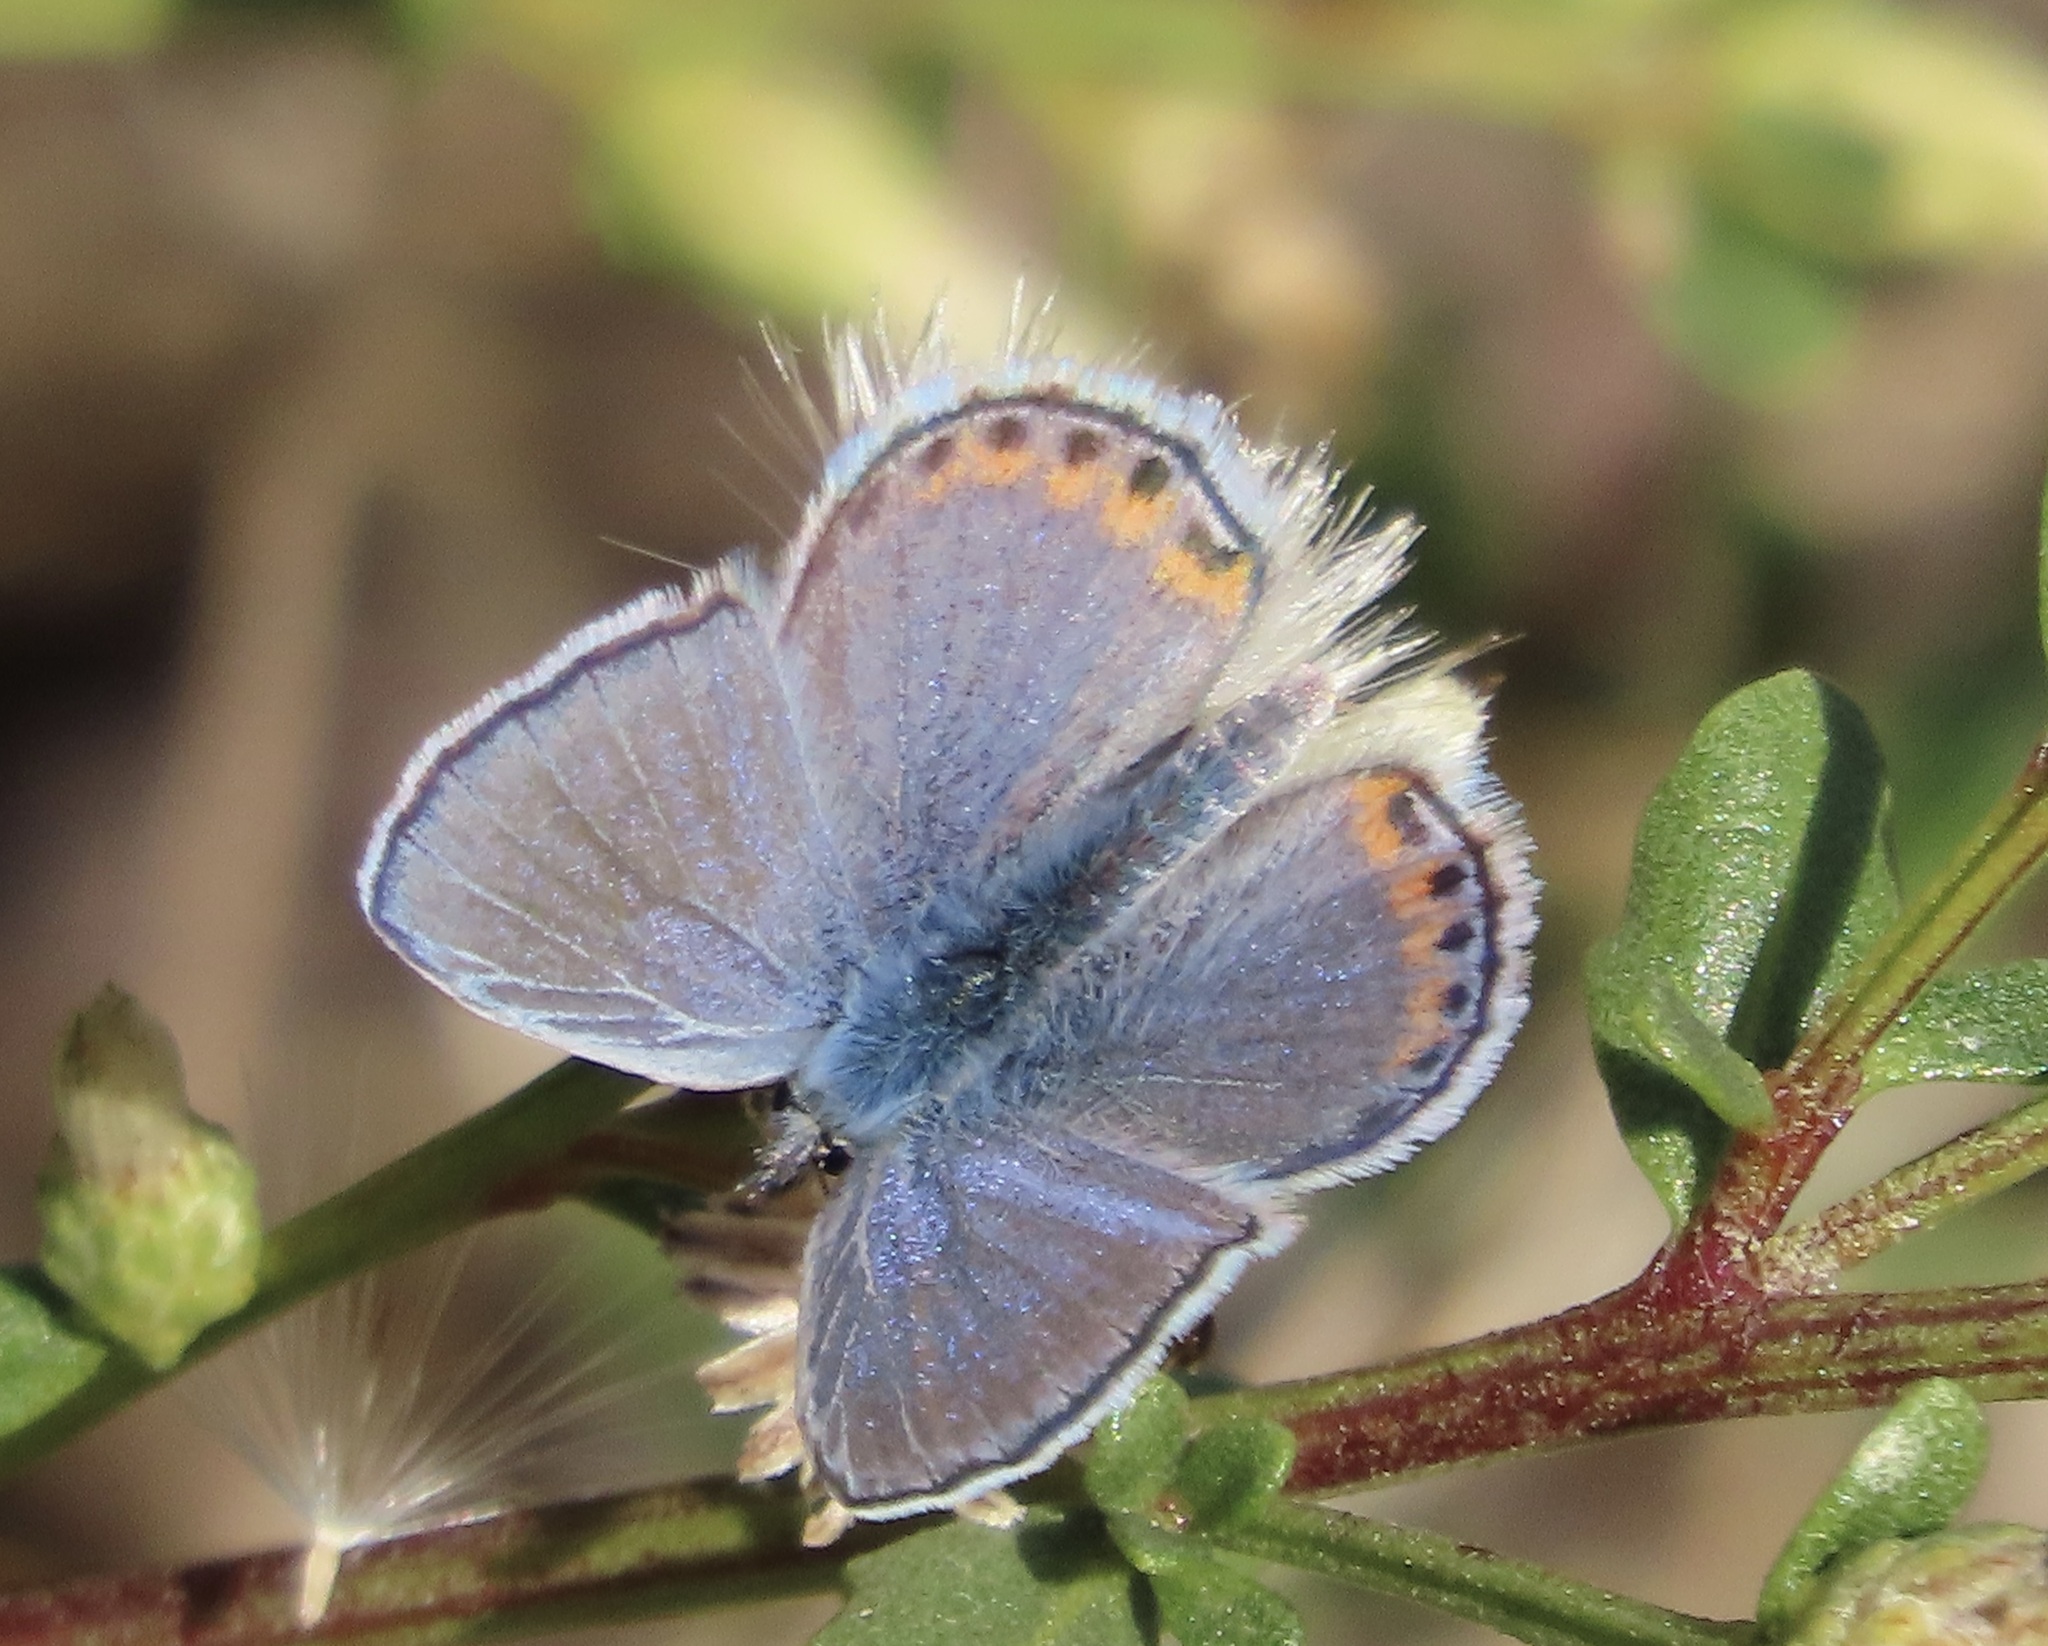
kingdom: Animalia
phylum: Arthropoda
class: Insecta
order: Lepidoptera
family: Lycaenidae
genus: Icaricia
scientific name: Icaricia acmon
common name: Acmon blue
